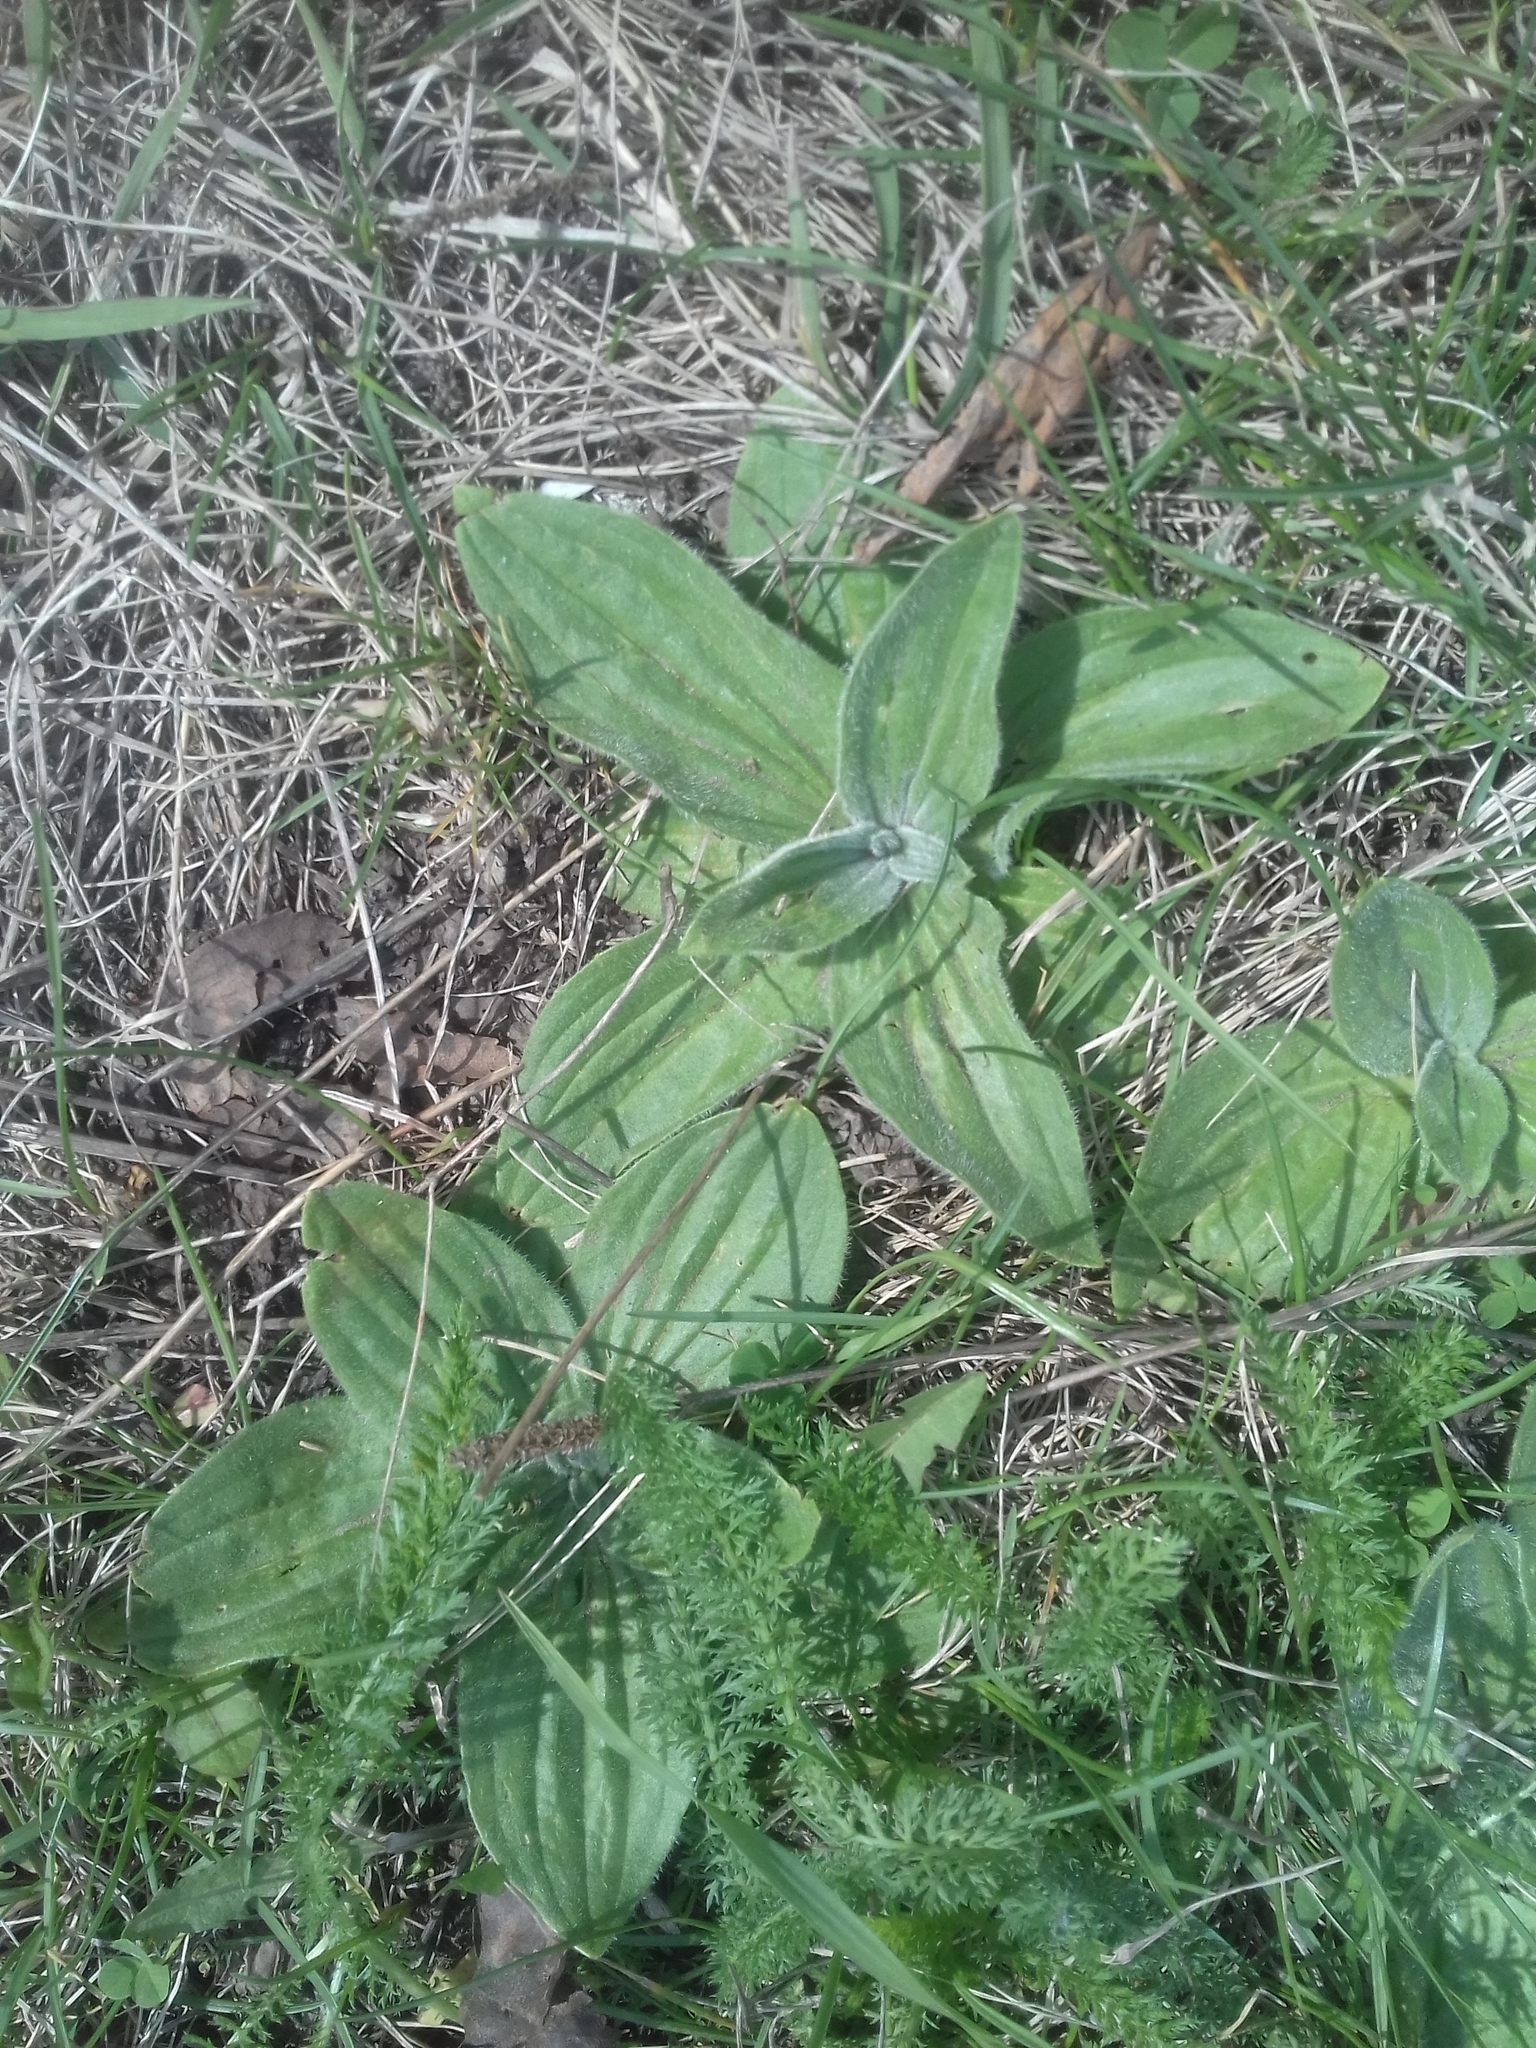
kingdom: Plantae
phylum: Tracheophyta
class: Magnoliopsida
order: Lamiales
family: Plantaginaceae
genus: Plantago
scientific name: Plantago media
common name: Hoary plantain
